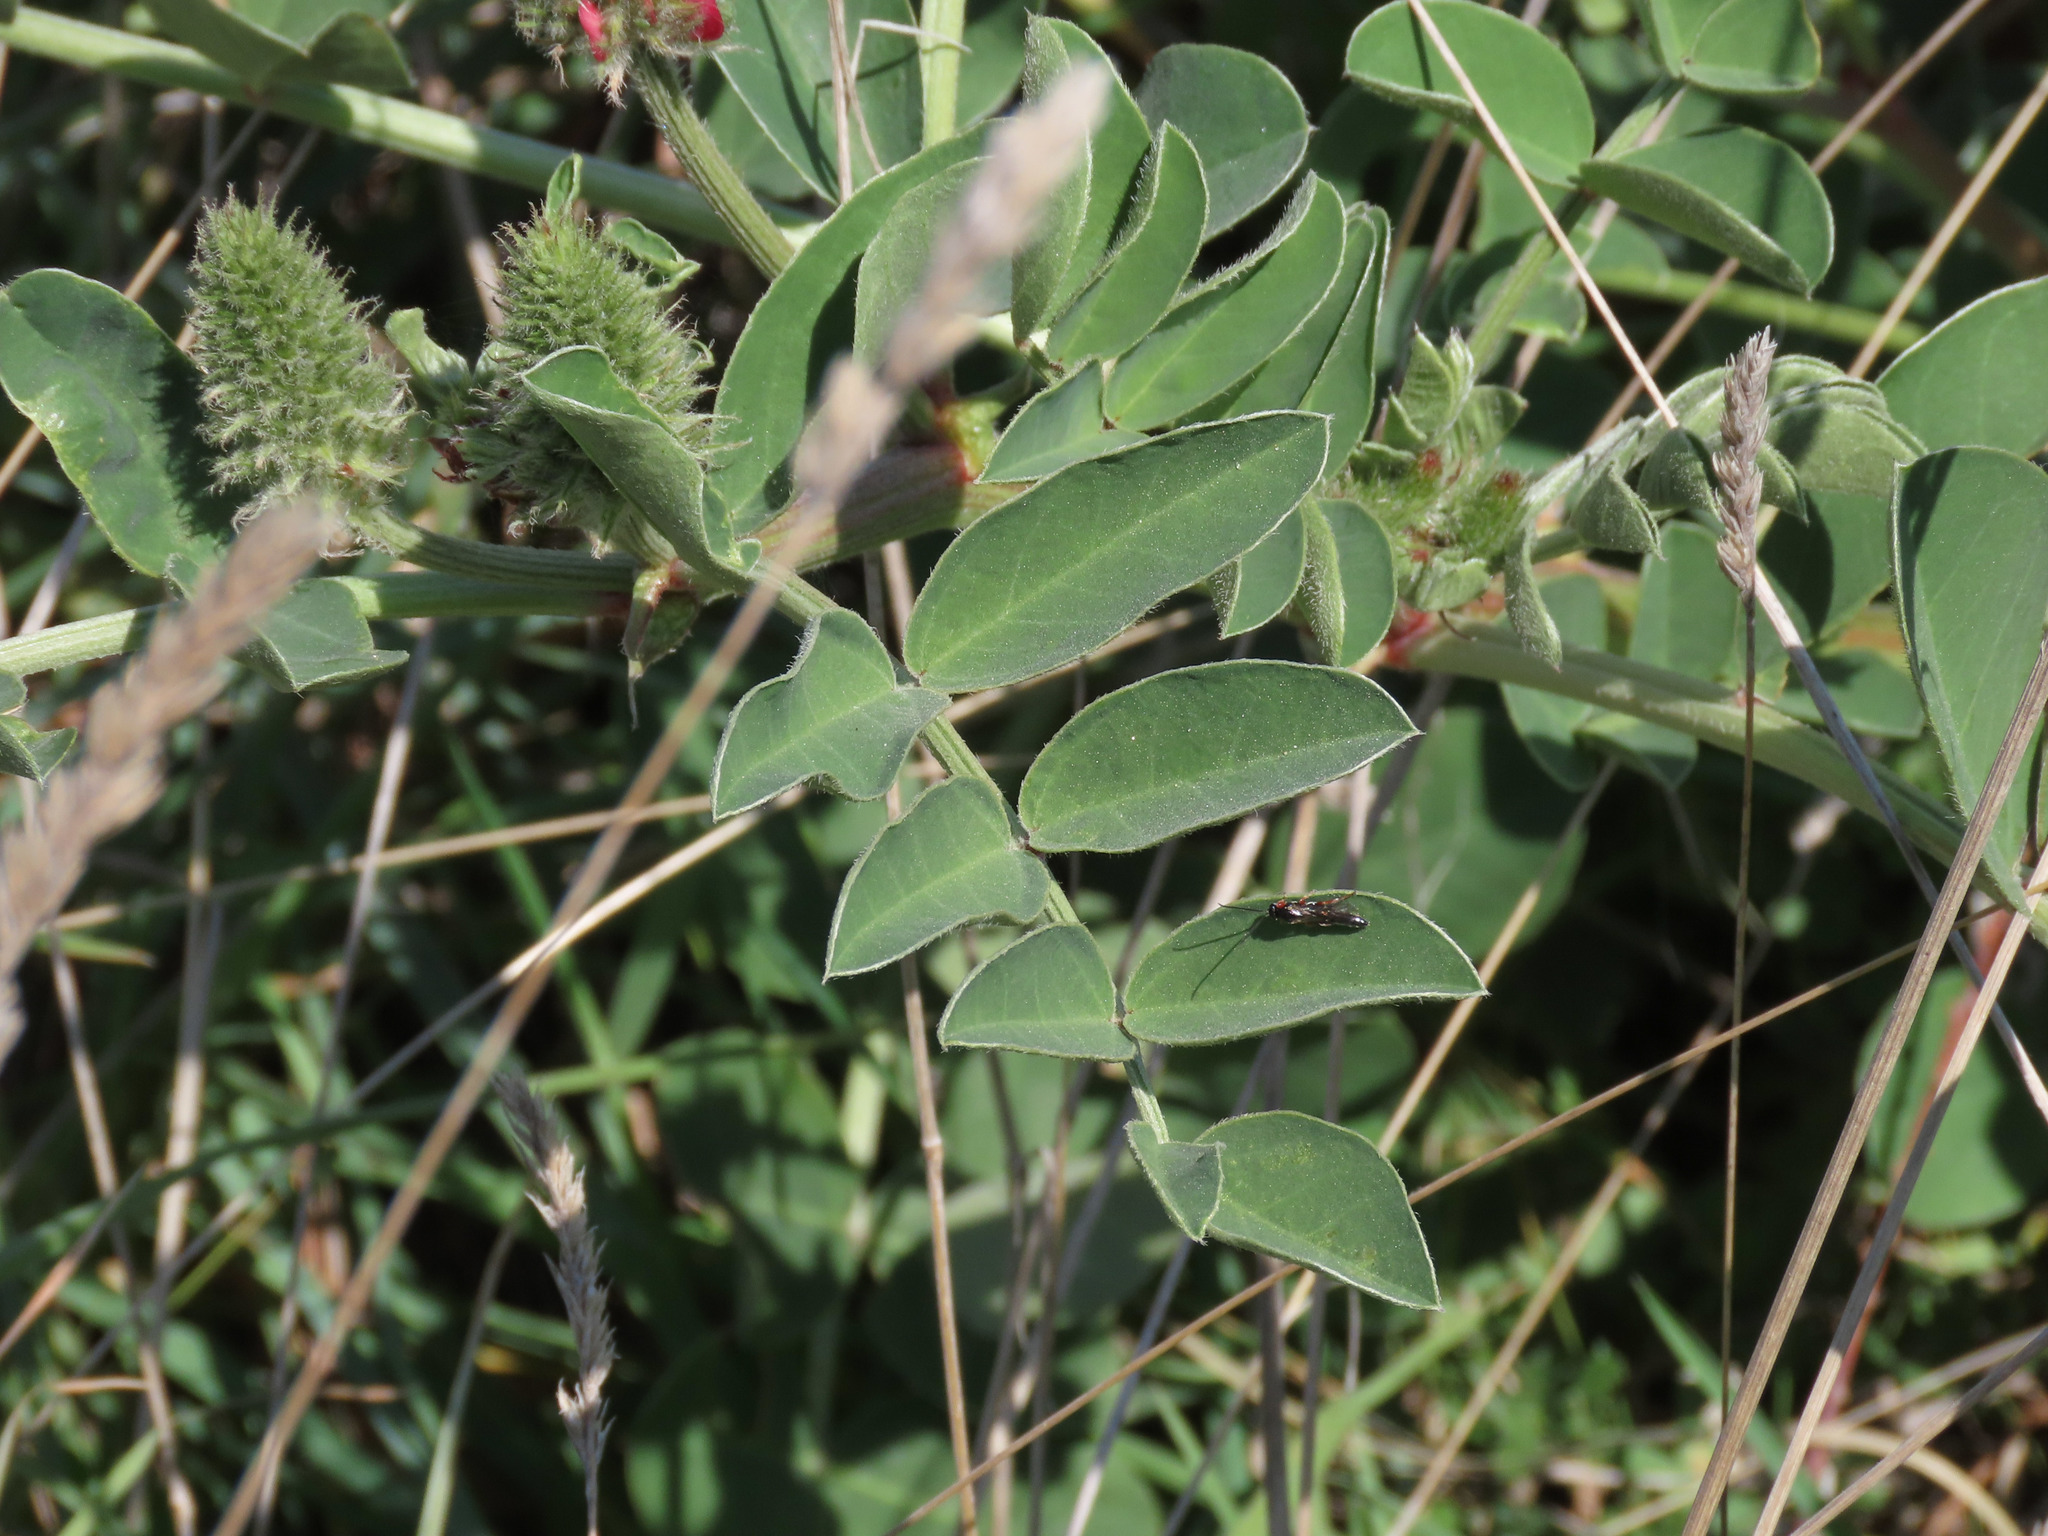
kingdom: Plantae
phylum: Tracheophyta
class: Magnoliopsida
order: Fabales
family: Fabaceae
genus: Sulla
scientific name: Sulla coronaria
